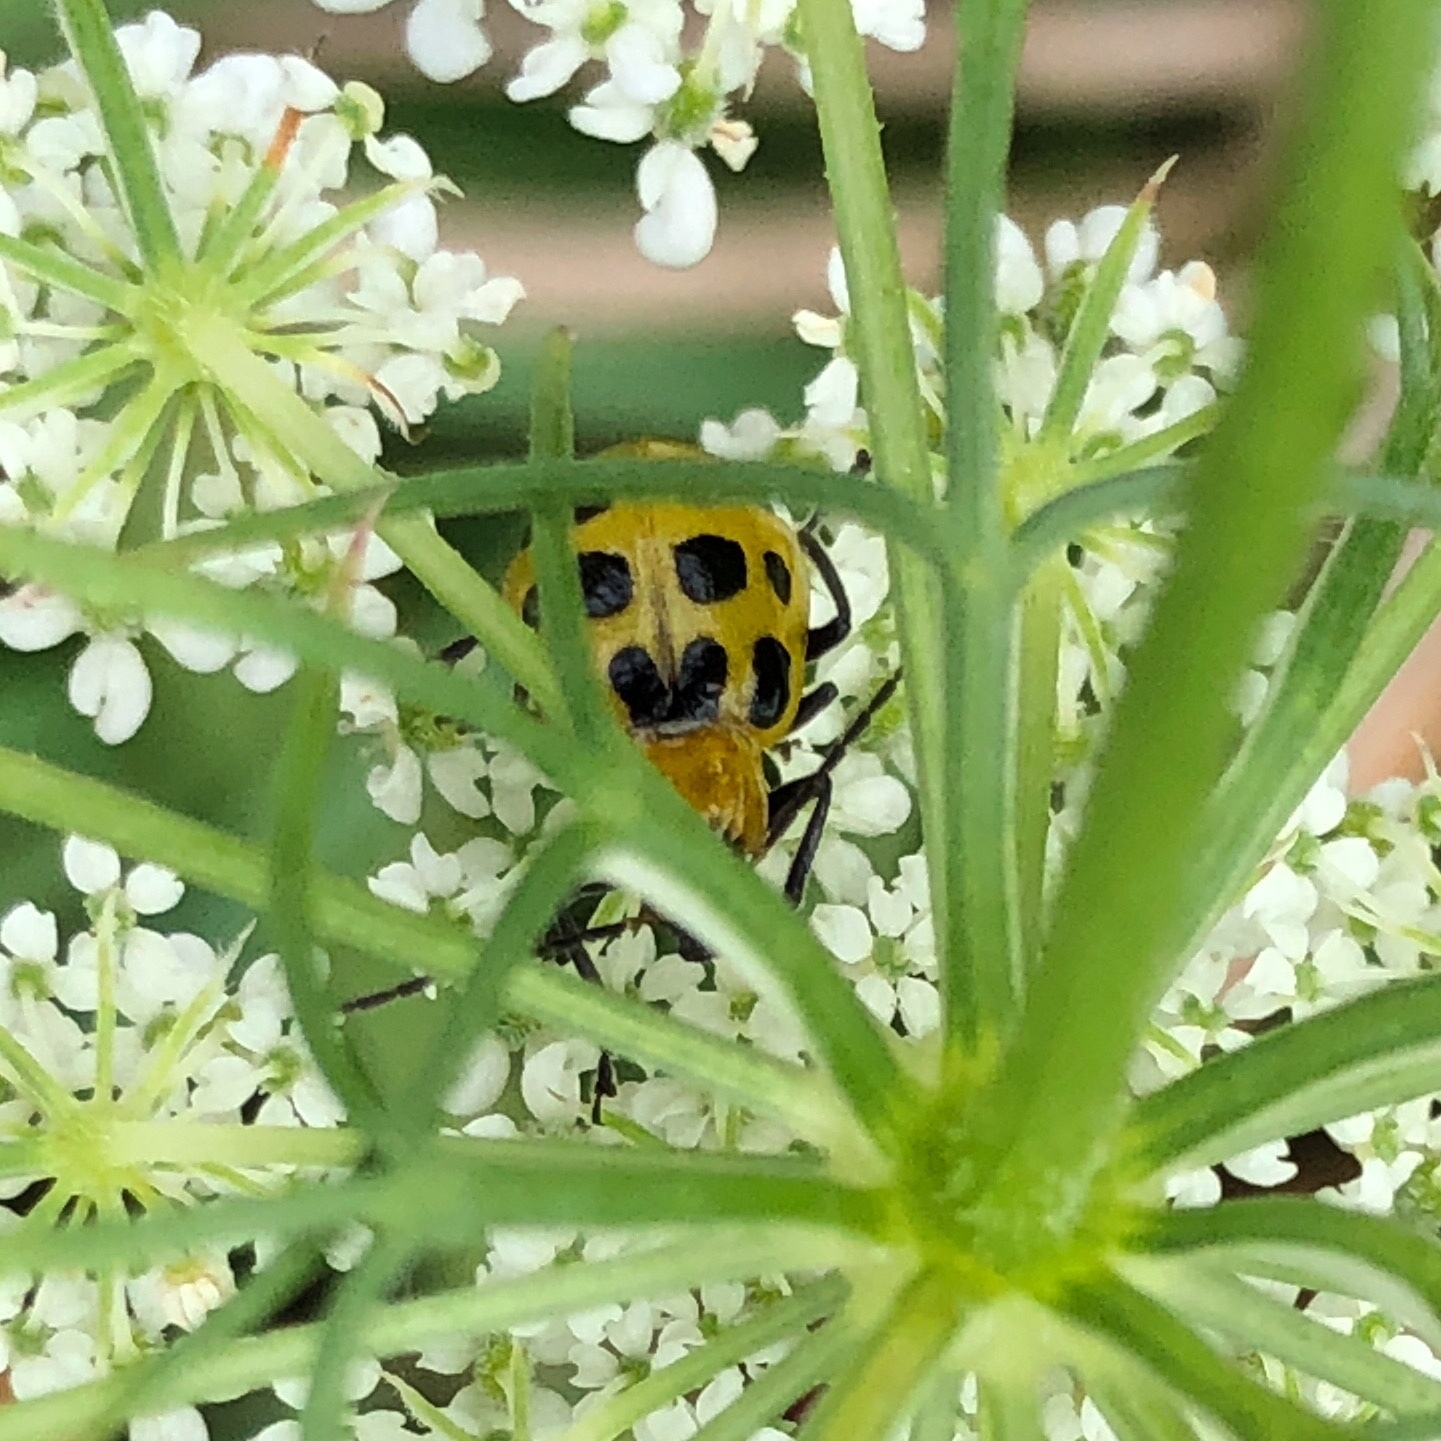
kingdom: Animalia
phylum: Arthropoda
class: Insecta
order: Coleoptera
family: Chrysomelidae
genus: Diabrotica
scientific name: Diabrotica undecimpunctata
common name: Spotted cucumber beetle
